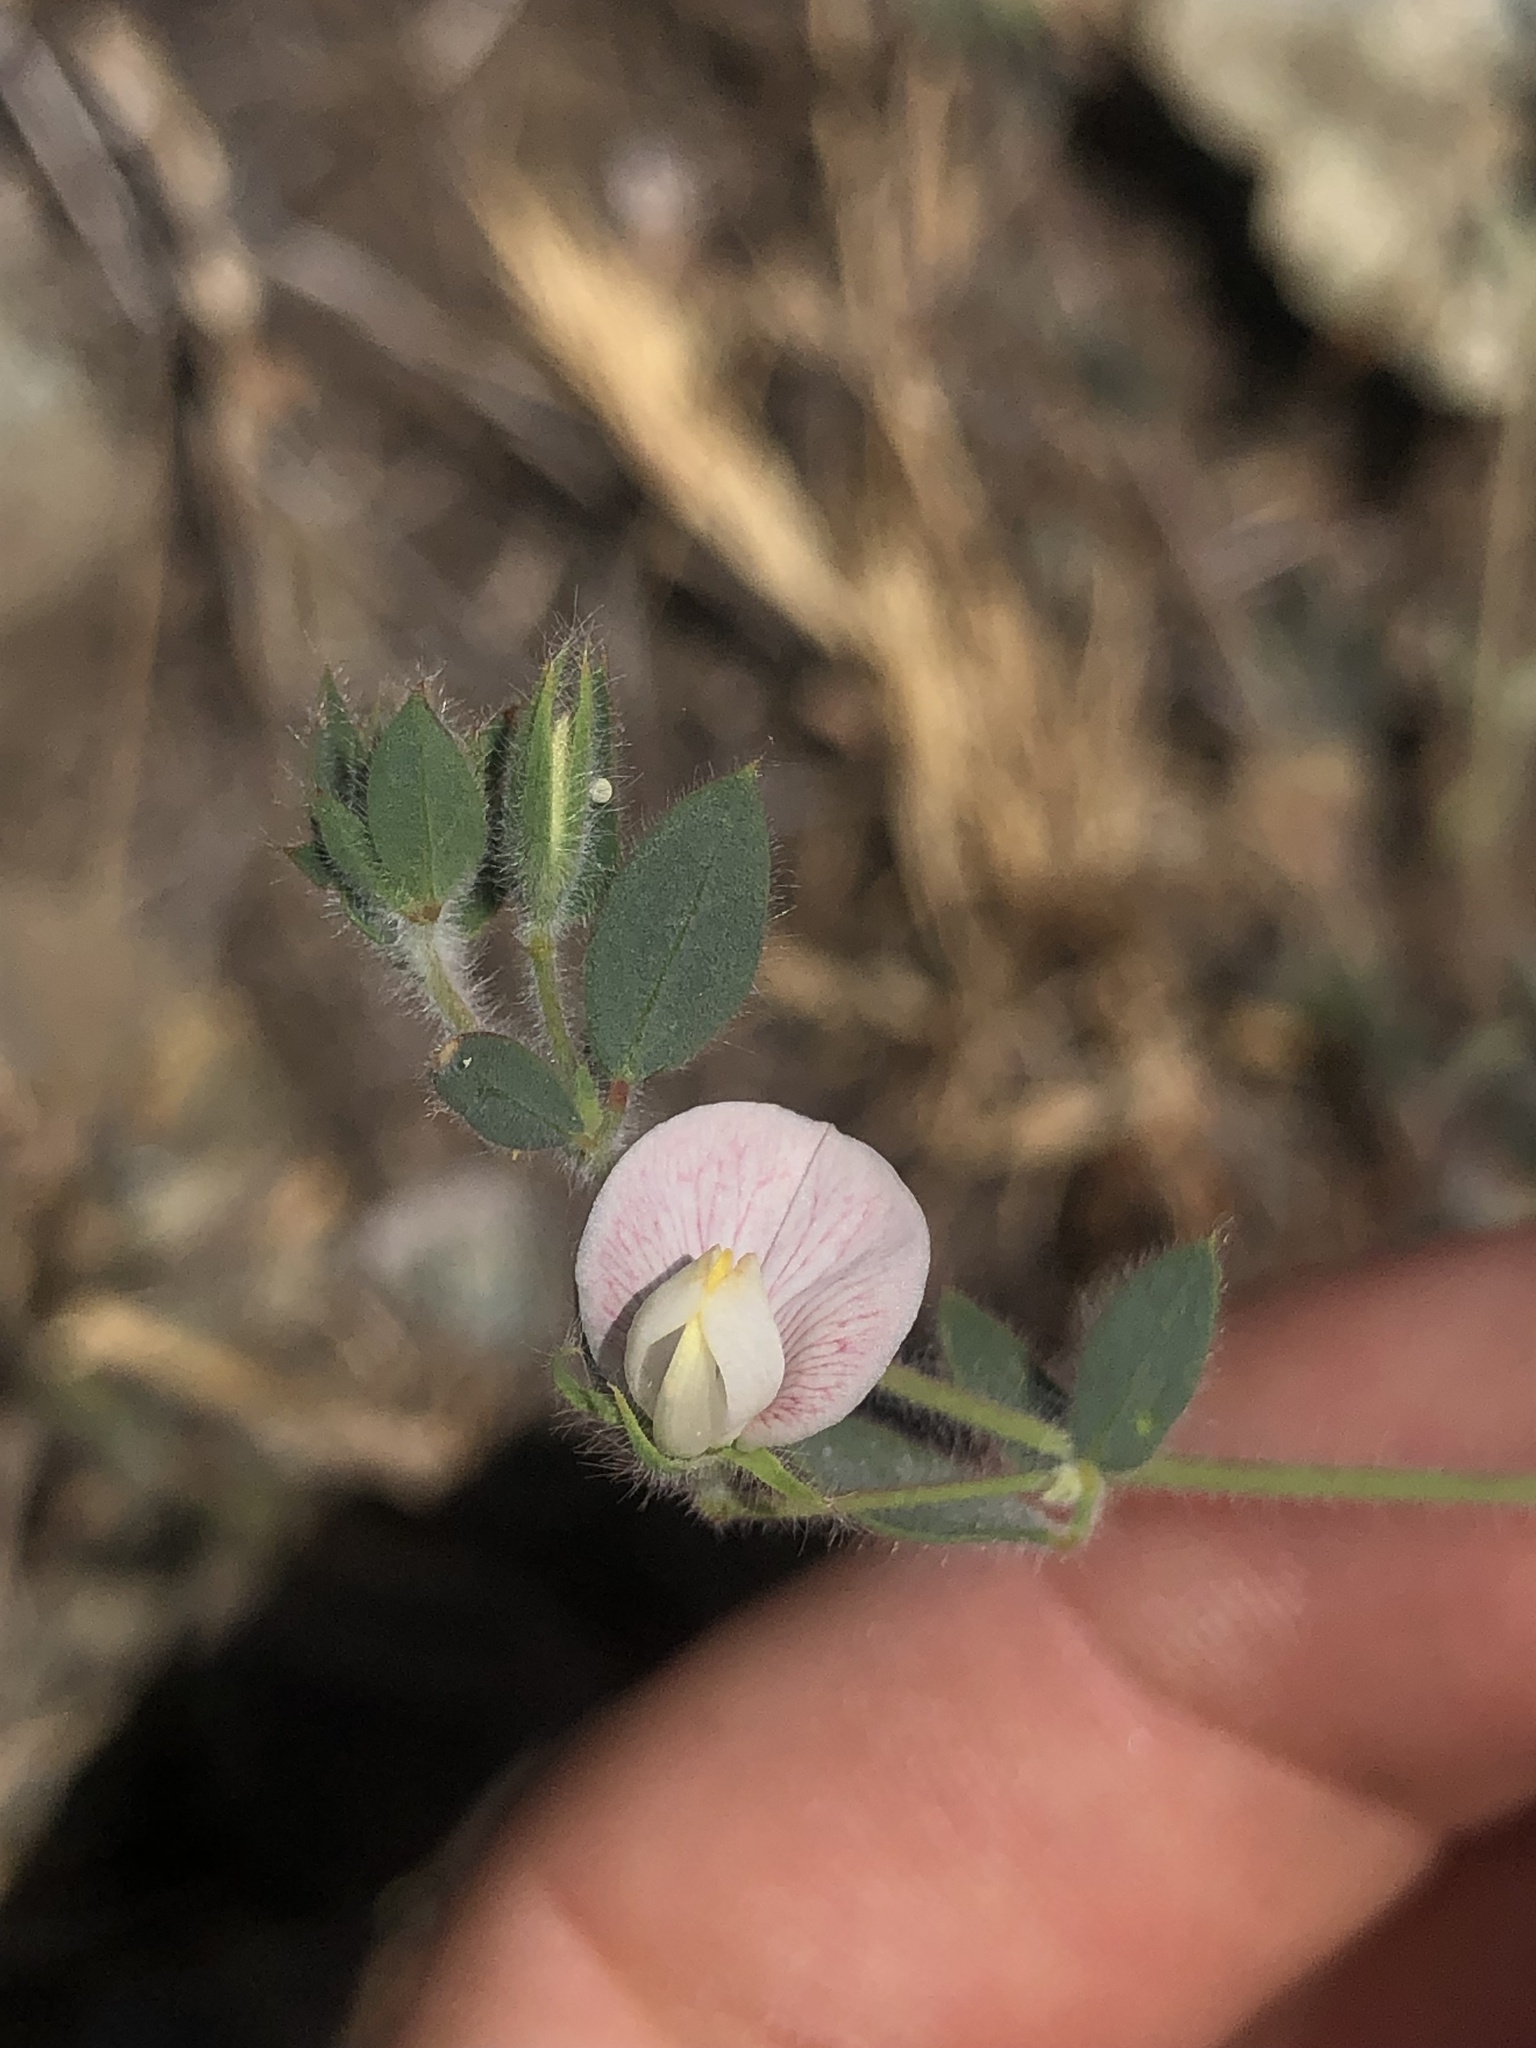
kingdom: Plantae
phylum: Tracheophyta
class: Magnoliopsida
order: Fabales
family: Fabaceae
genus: Acmispon
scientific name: Acmispon americanus
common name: American bird's-foot trefoil
